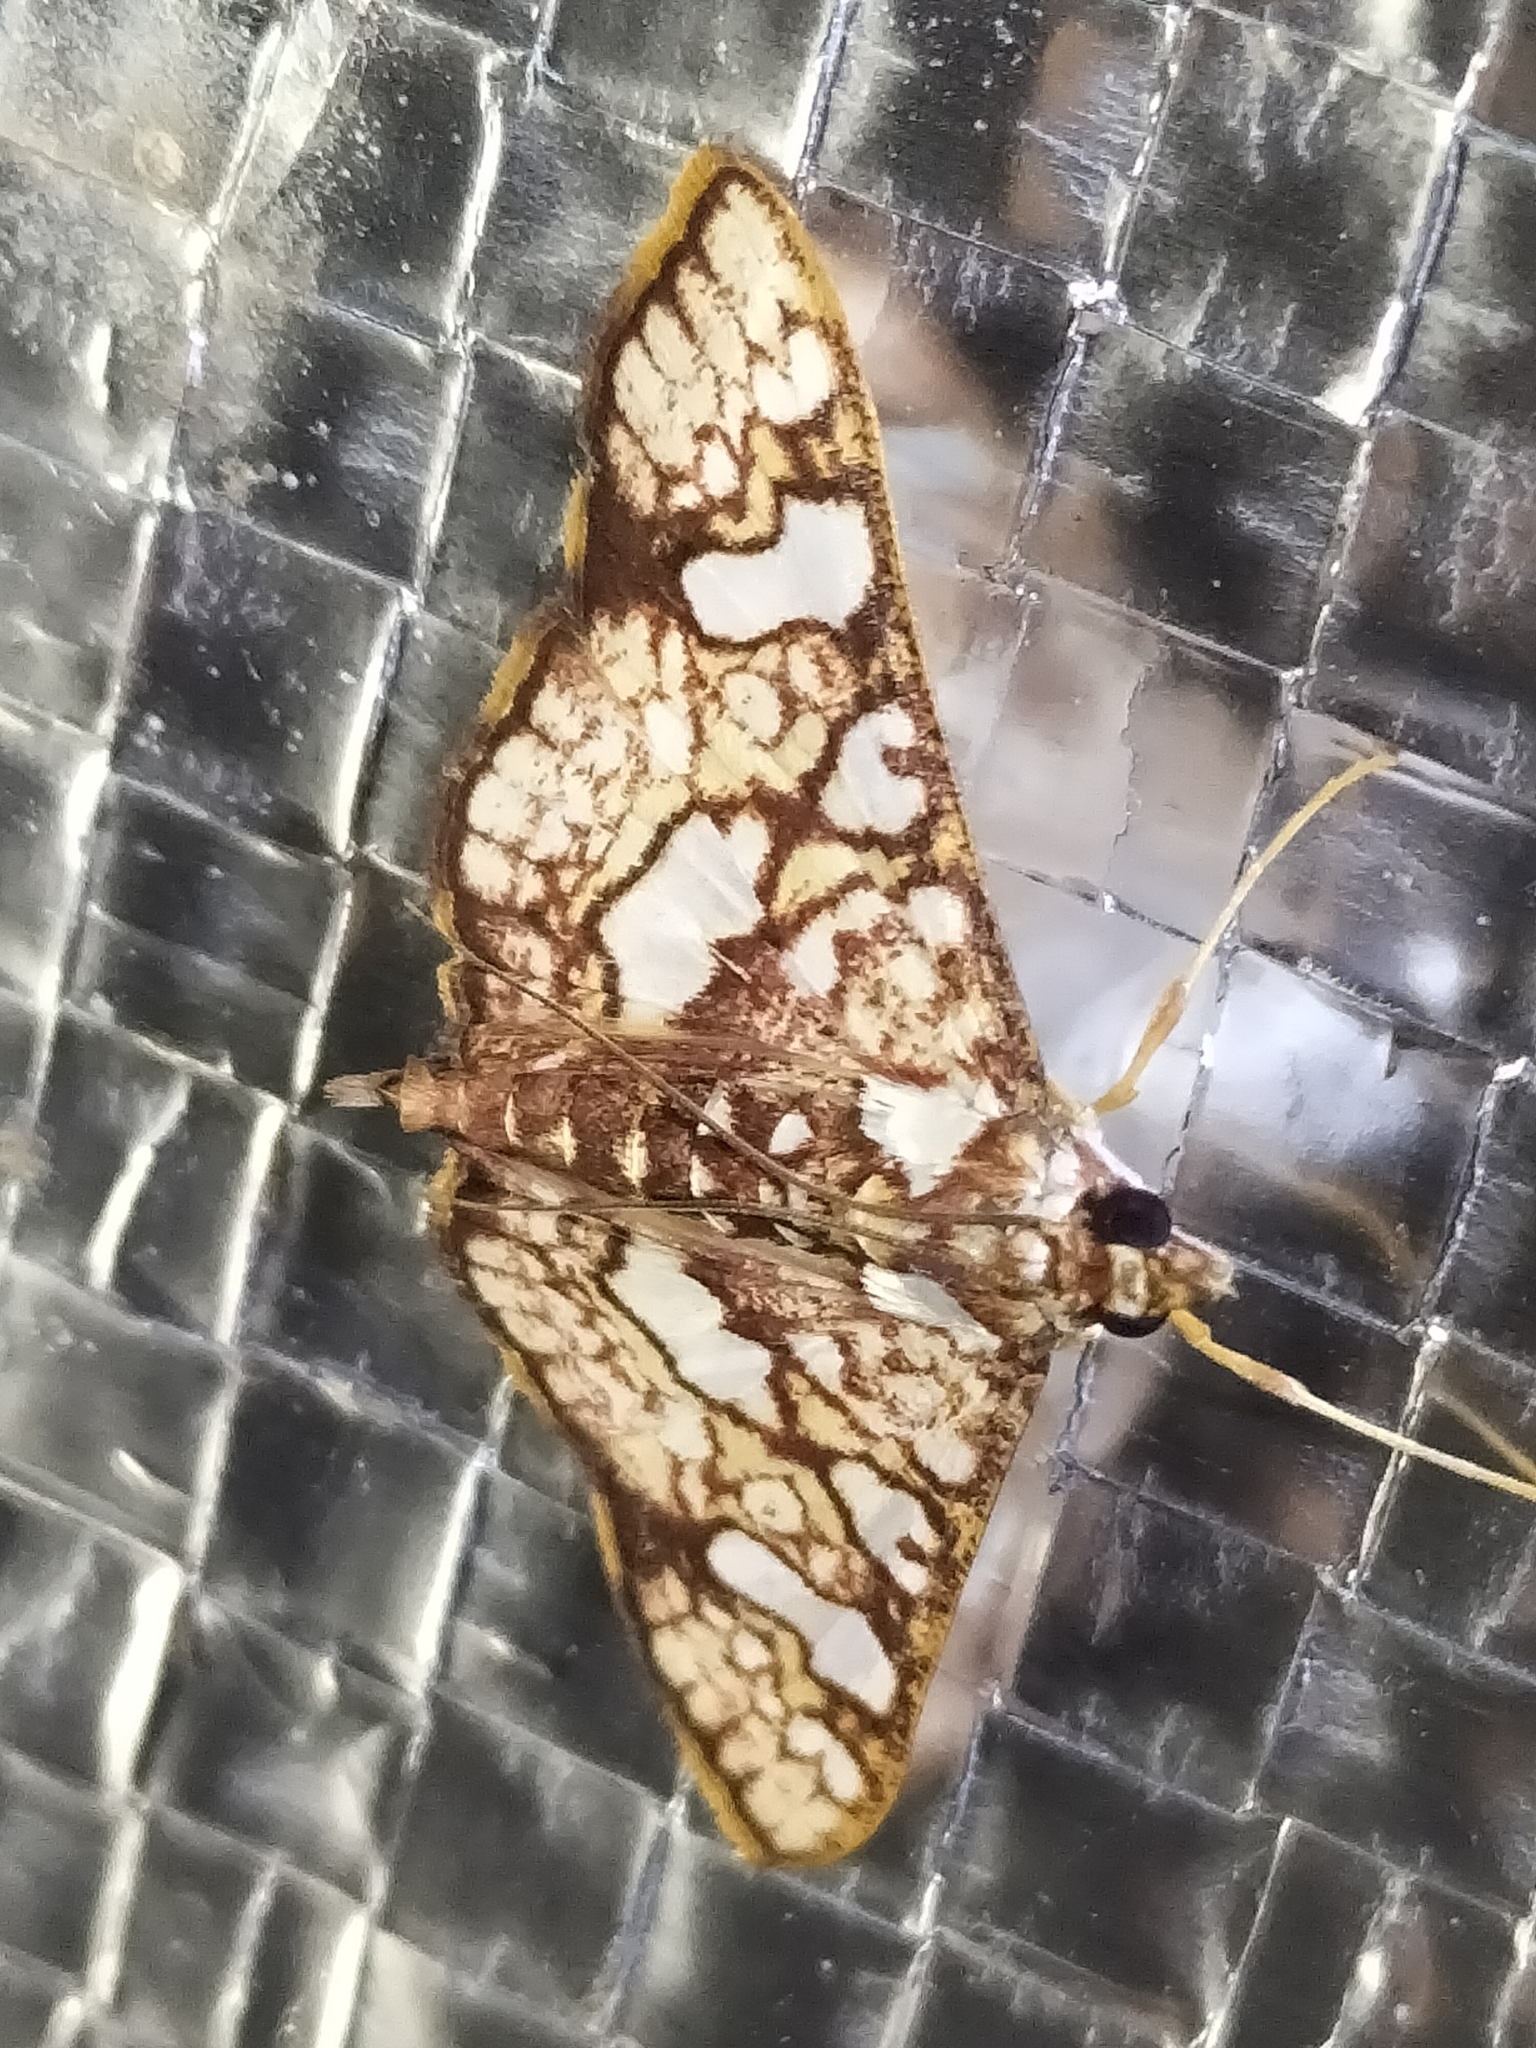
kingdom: Animalia
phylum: Arthropoda
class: Insecta
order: Lepidoptera
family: Crambidae
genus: Glyphodes
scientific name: Glyphodes canthusalis
